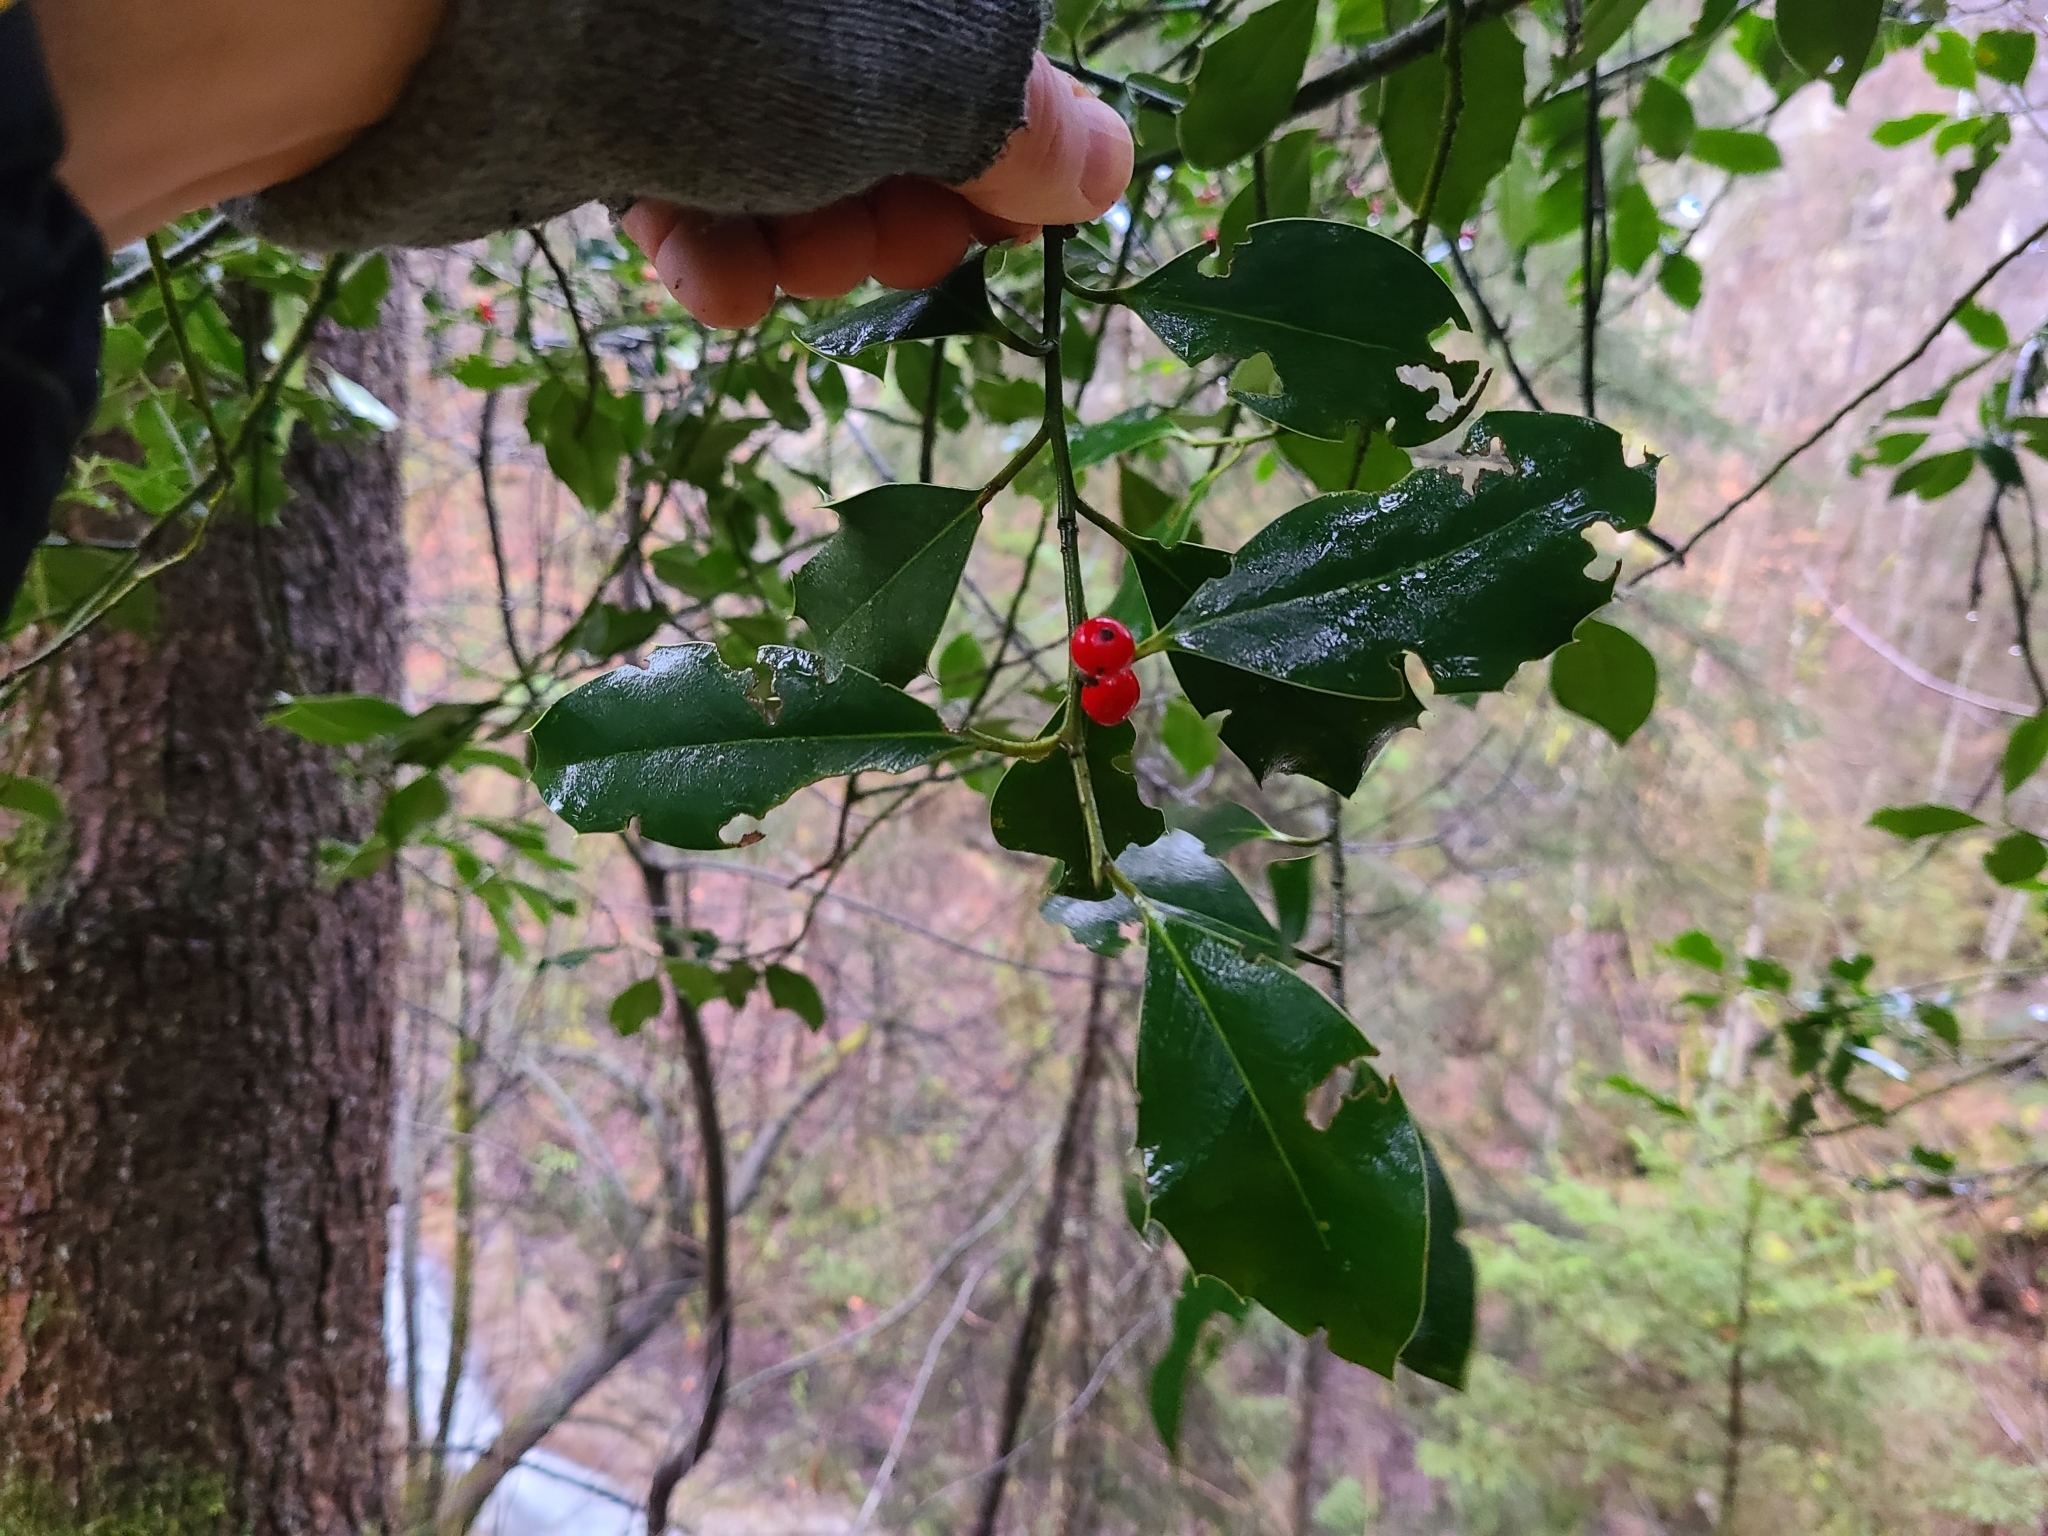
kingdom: Plantae
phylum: Tracheophyta
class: Magnoliopsida
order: Aquifoliales
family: Aquifoliaceae
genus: Ilex
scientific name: Ilex aquifolium
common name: English holly
